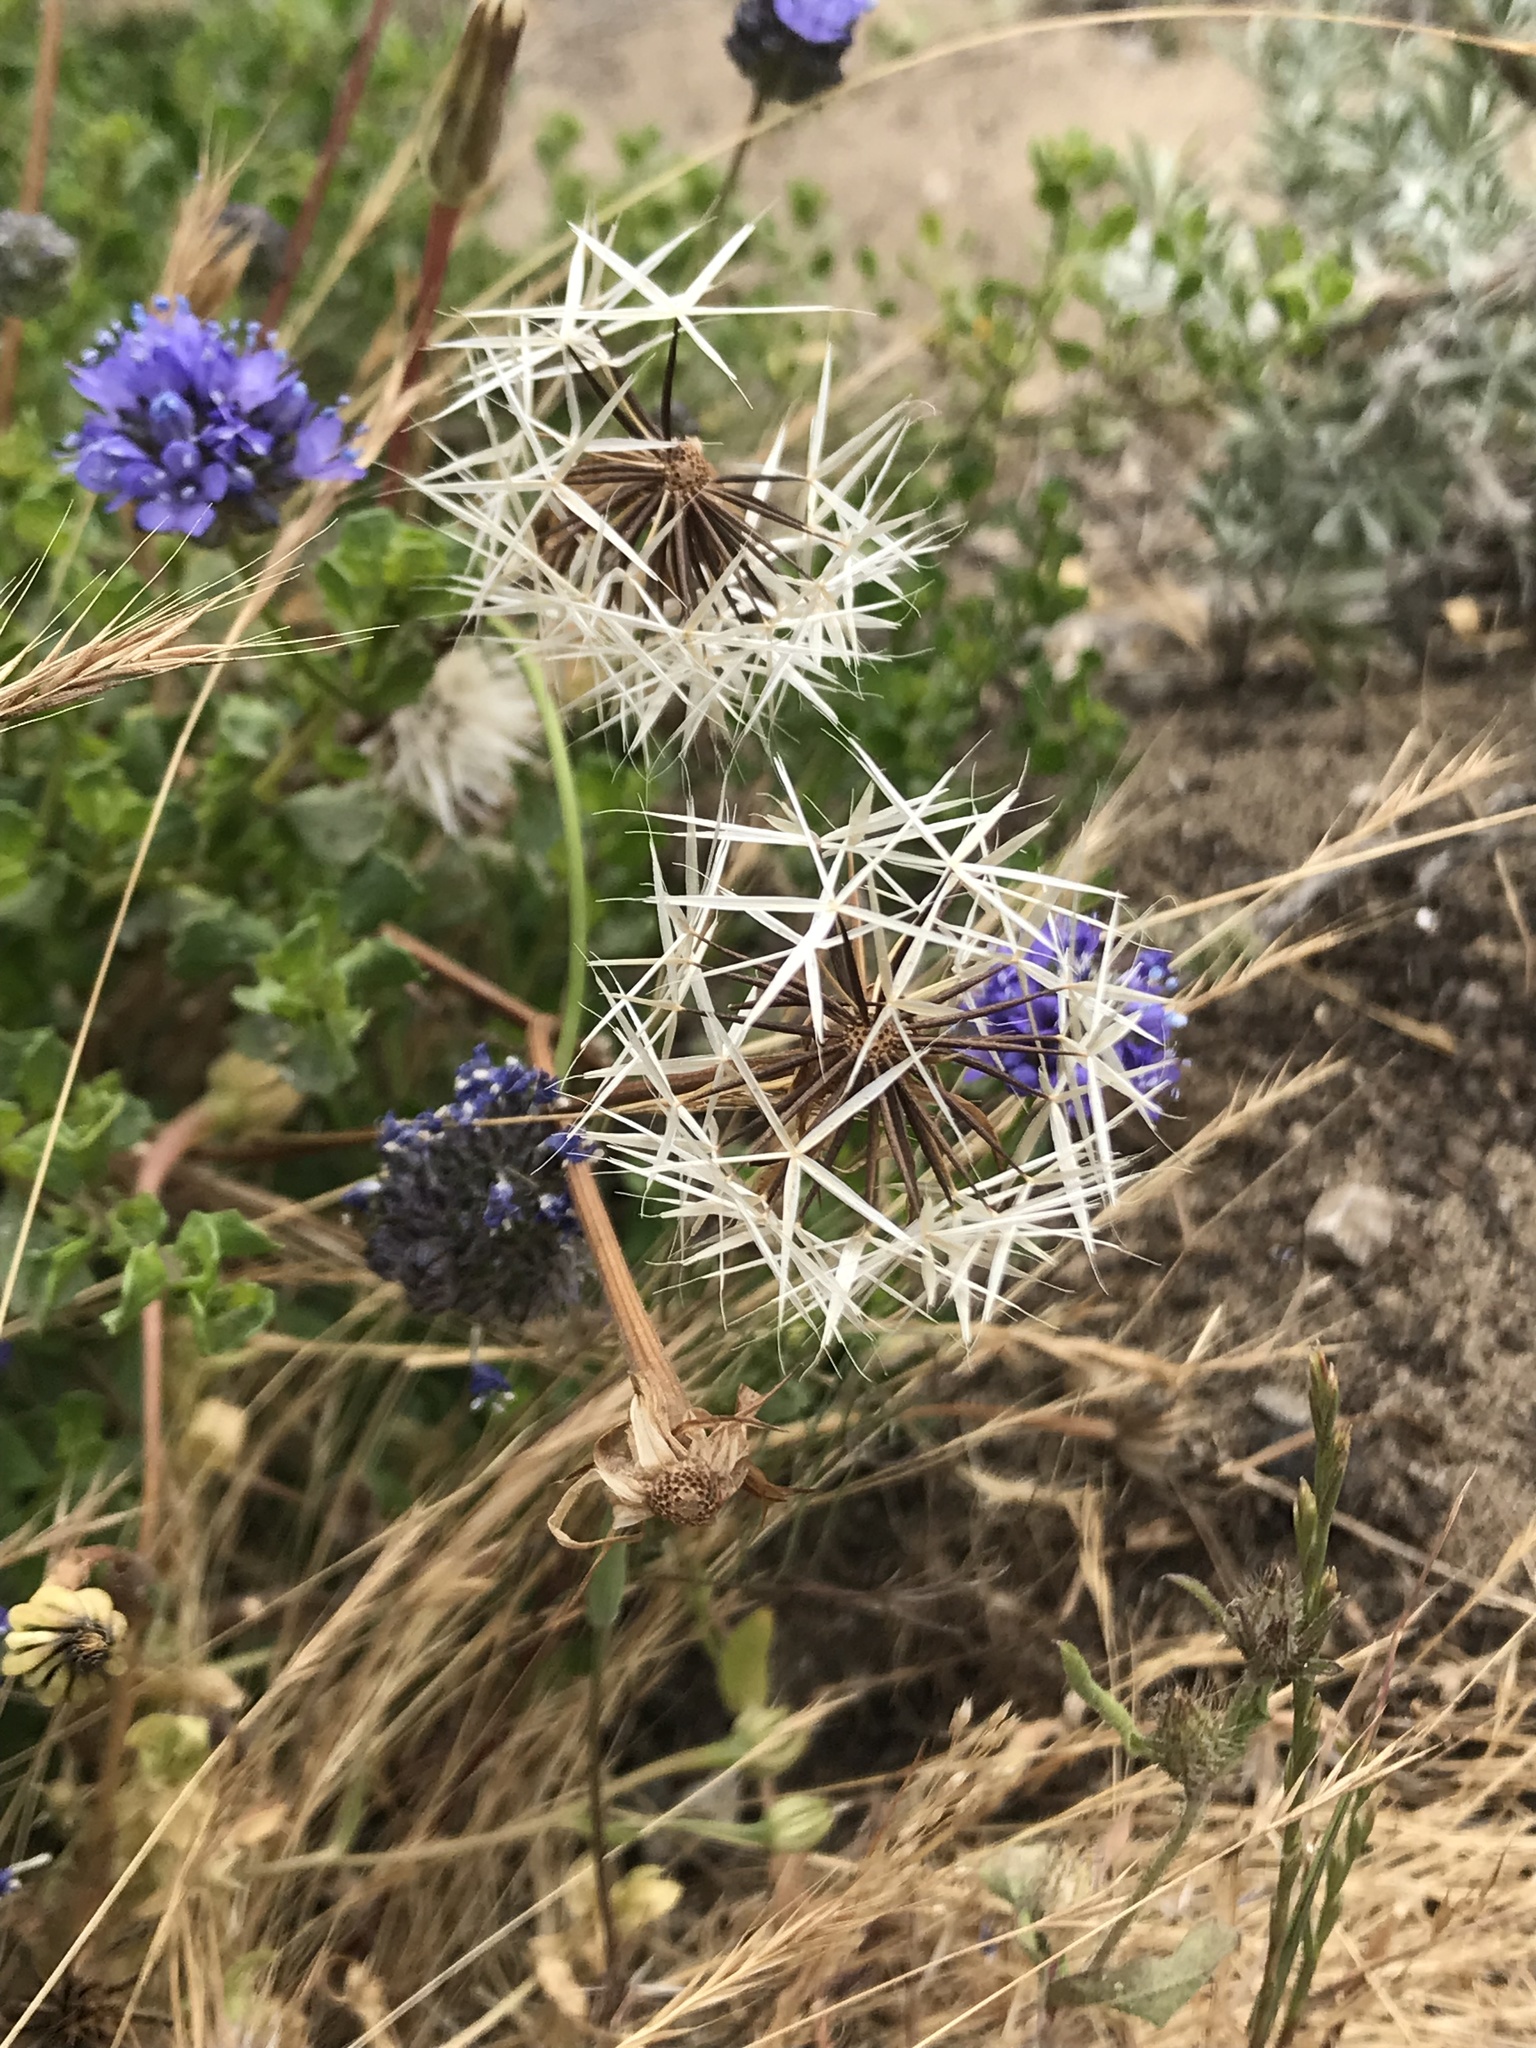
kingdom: Plantae
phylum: Tracheophyta
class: Magnoliopsida
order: Asterales
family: Asteraceae
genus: Microseris
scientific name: Microseris lindleyi
